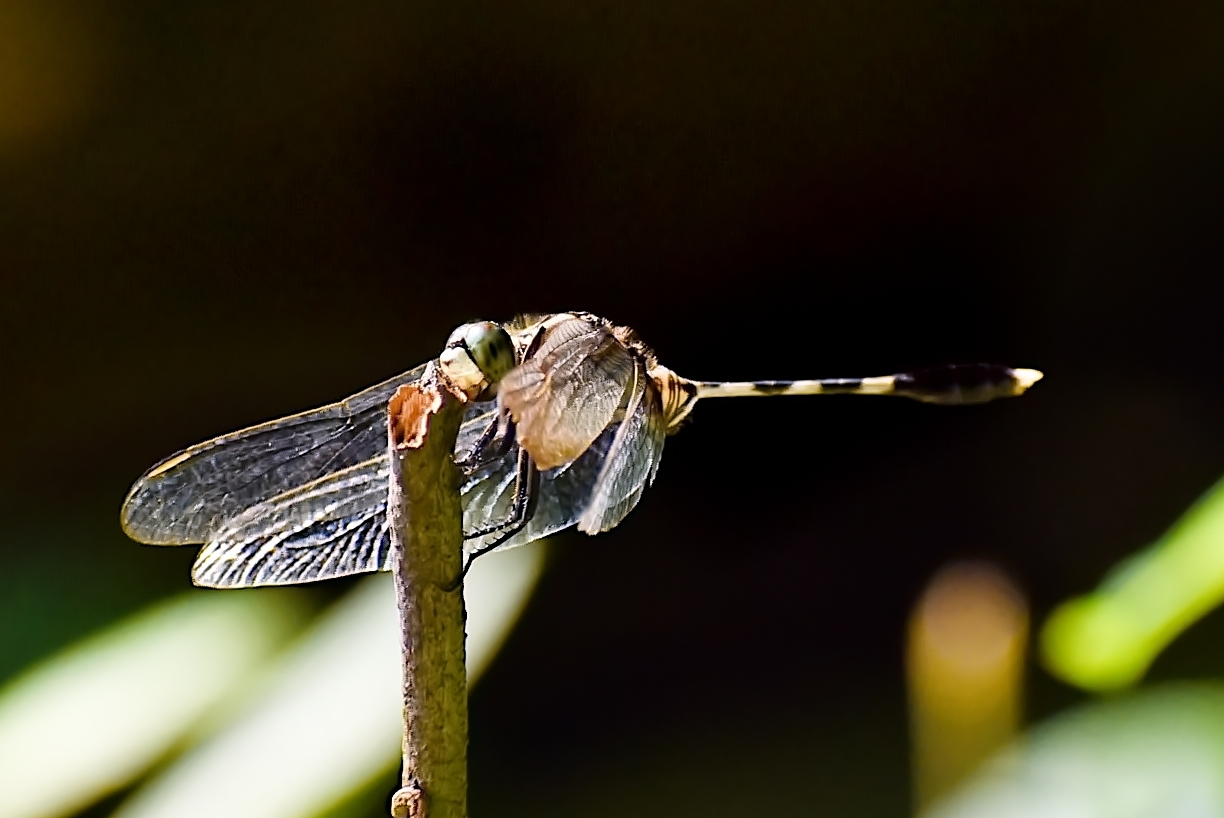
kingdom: Animalia
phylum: Arthropoda
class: Insecta
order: Odonata
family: Libellulidae
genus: Orthetrum
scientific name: Orthetrum sabina
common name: Slender skimmer
